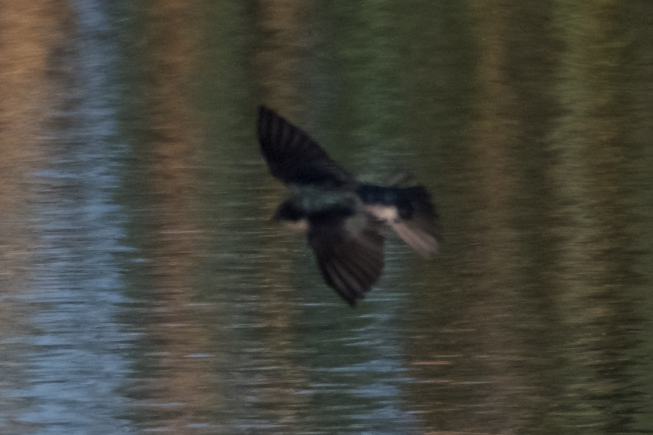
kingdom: Animalia
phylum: Chordata
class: Aves
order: Passeriformes
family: Hirundinidae
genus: Tachycineta
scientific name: Tachycineta bicolor
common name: Tree swallow
